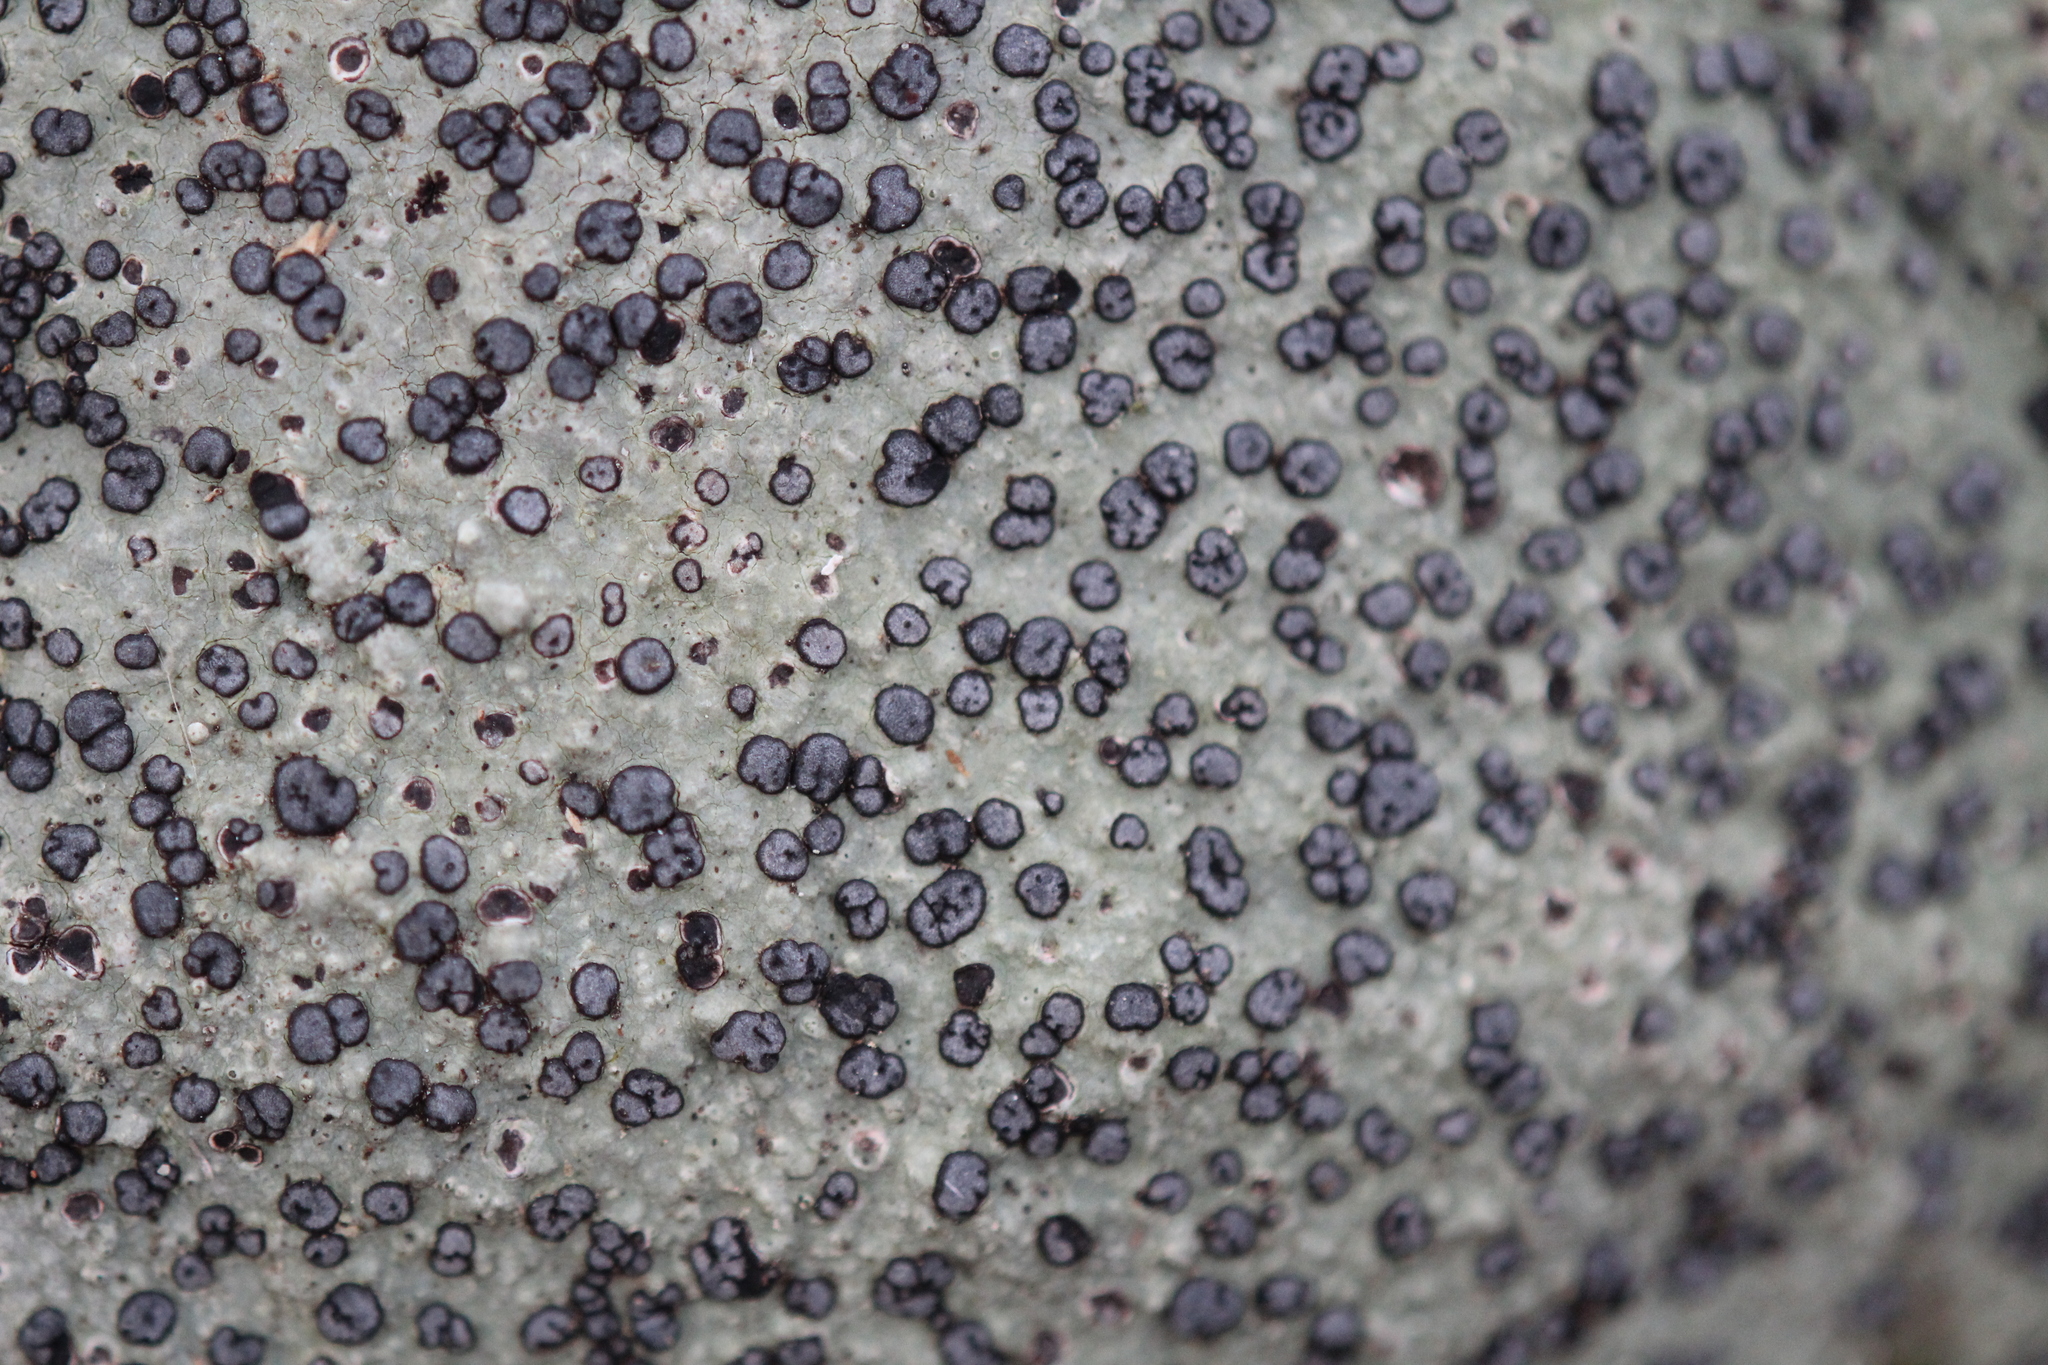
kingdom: Fungi
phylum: Ascomycota
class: Lecanoromycetes
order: Lecideales
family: Lecideaceae
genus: Porpidia
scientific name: Porpidia albocaerulescens
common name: Smokey-eyed boulder lichen
